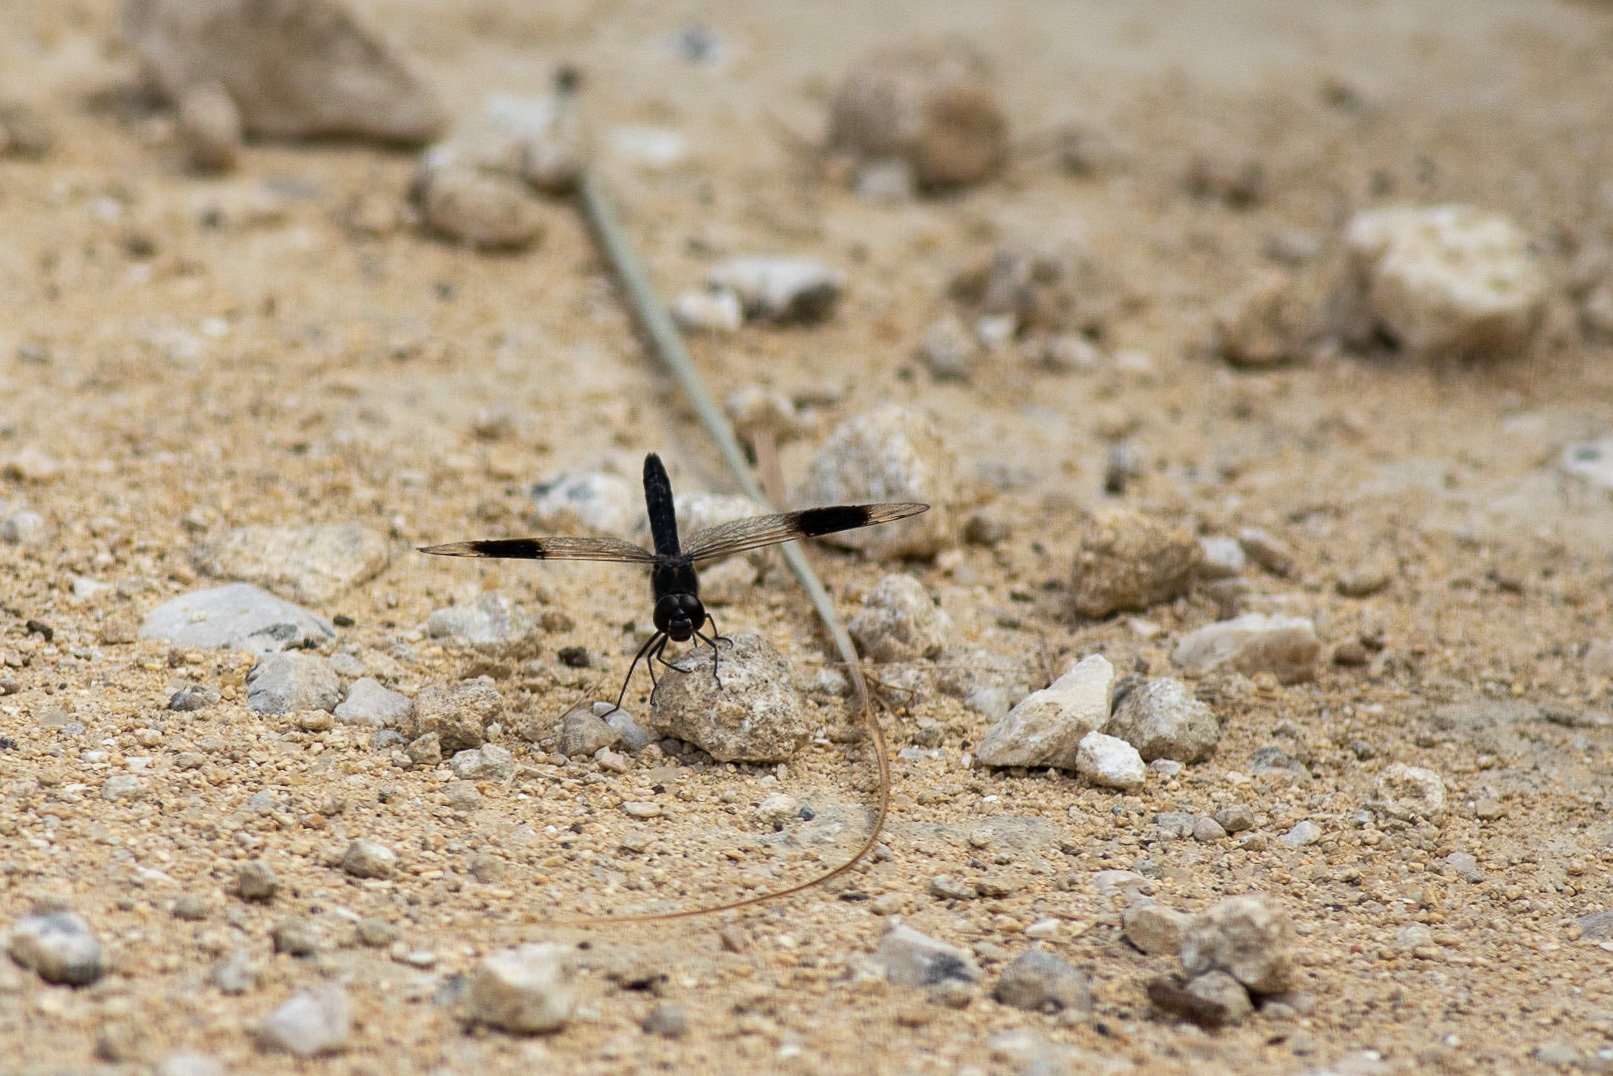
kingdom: Animalia
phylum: Arthropoda
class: Insecta
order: Odonata
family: Libellulidae
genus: Brachythemis
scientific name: Brachythemis impartita
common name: Banded groundling
